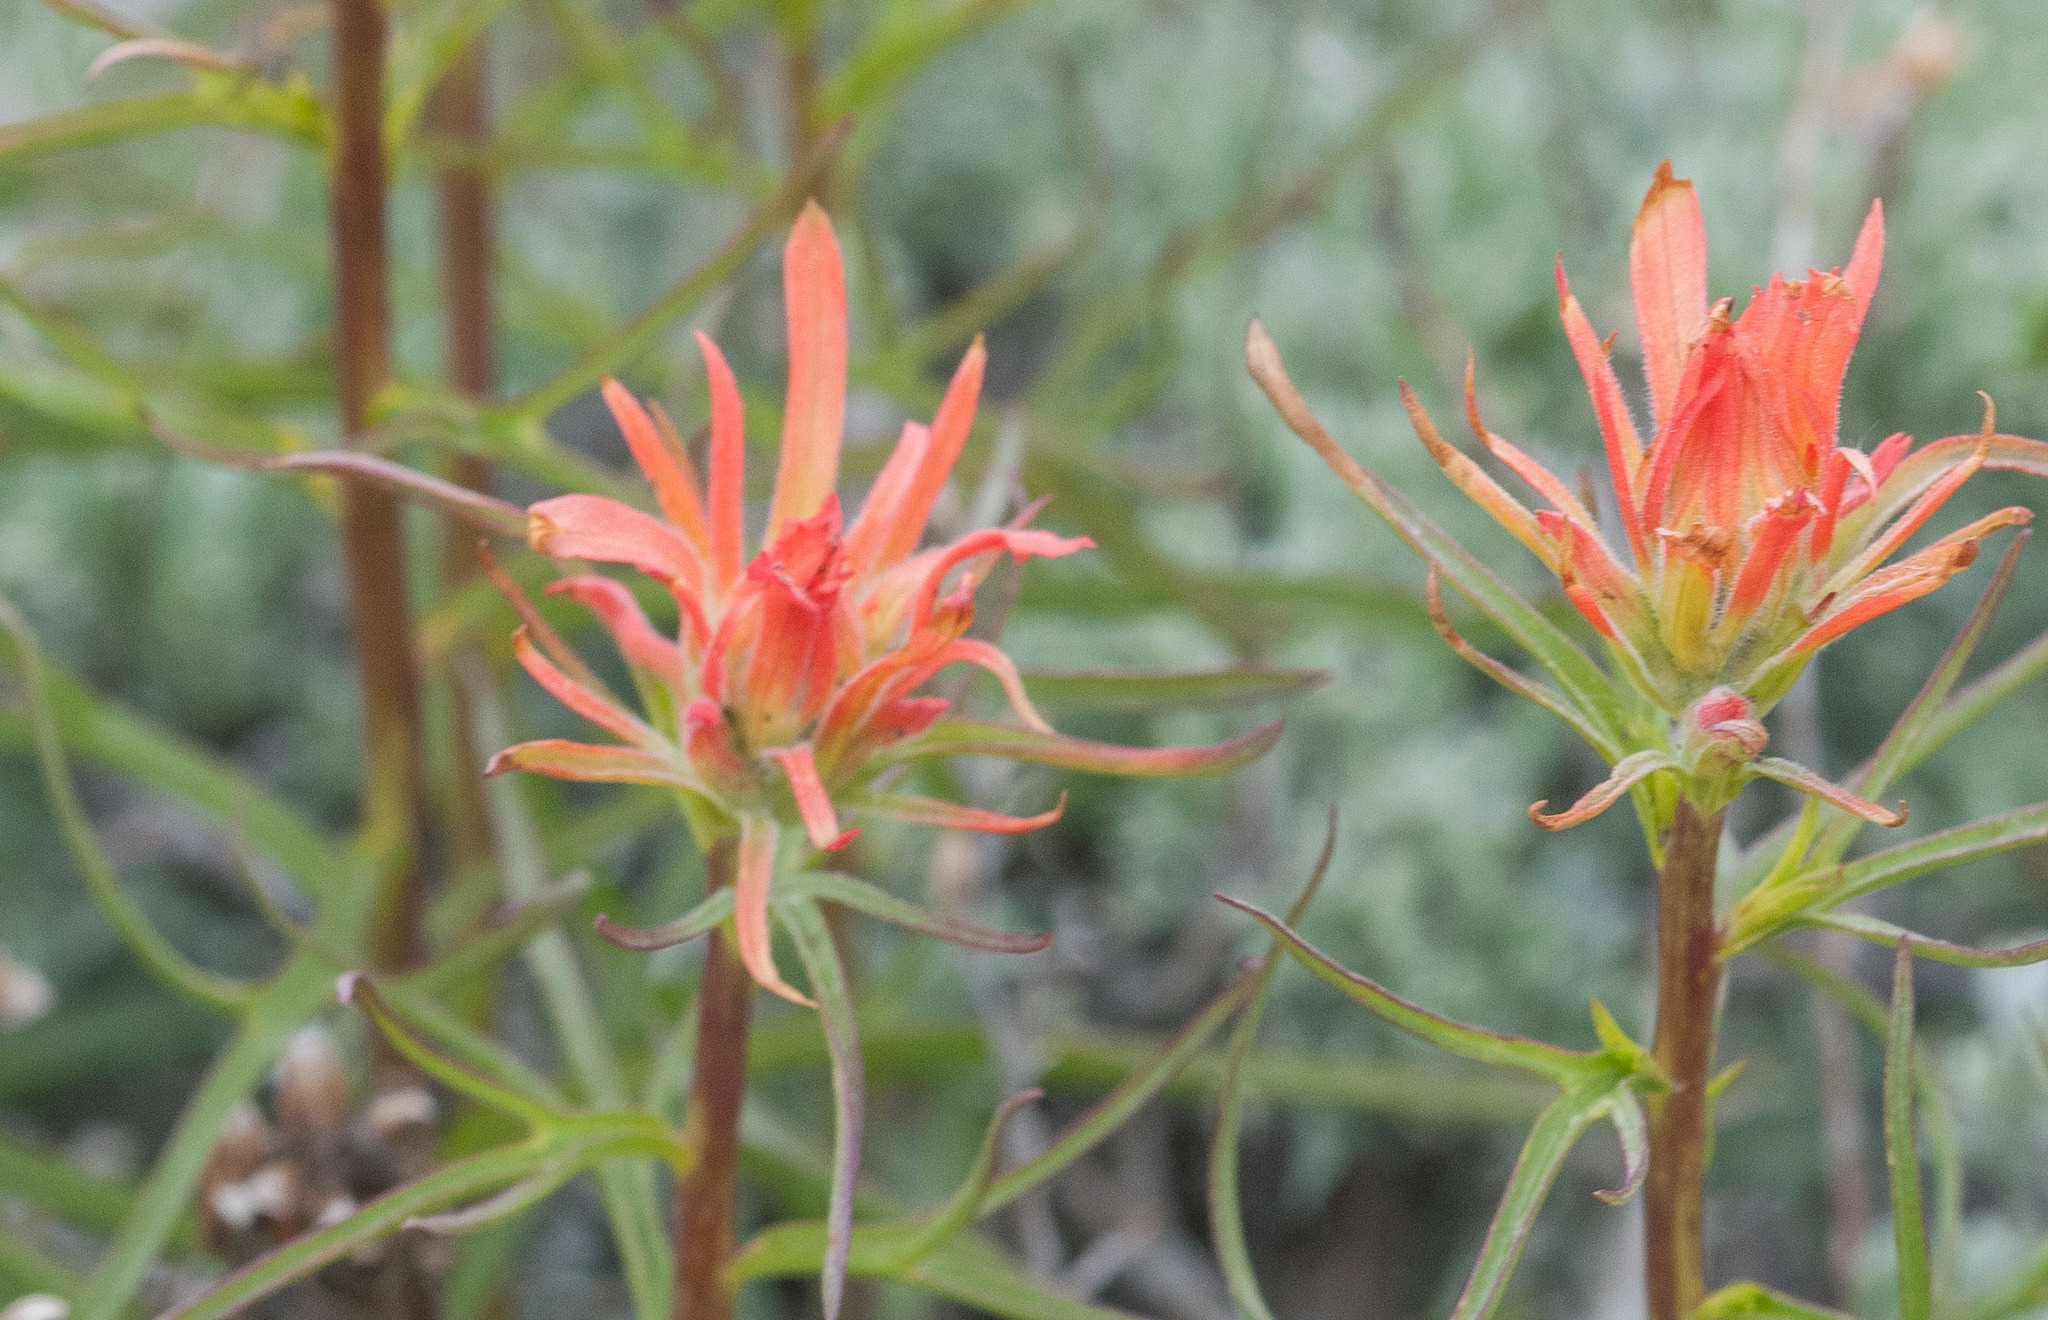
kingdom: Plantae
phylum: Tracheophyta
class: Magnoliopsida
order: Lamiales
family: Orobanchaceae
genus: Castilleja
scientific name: Castilleja miniata
